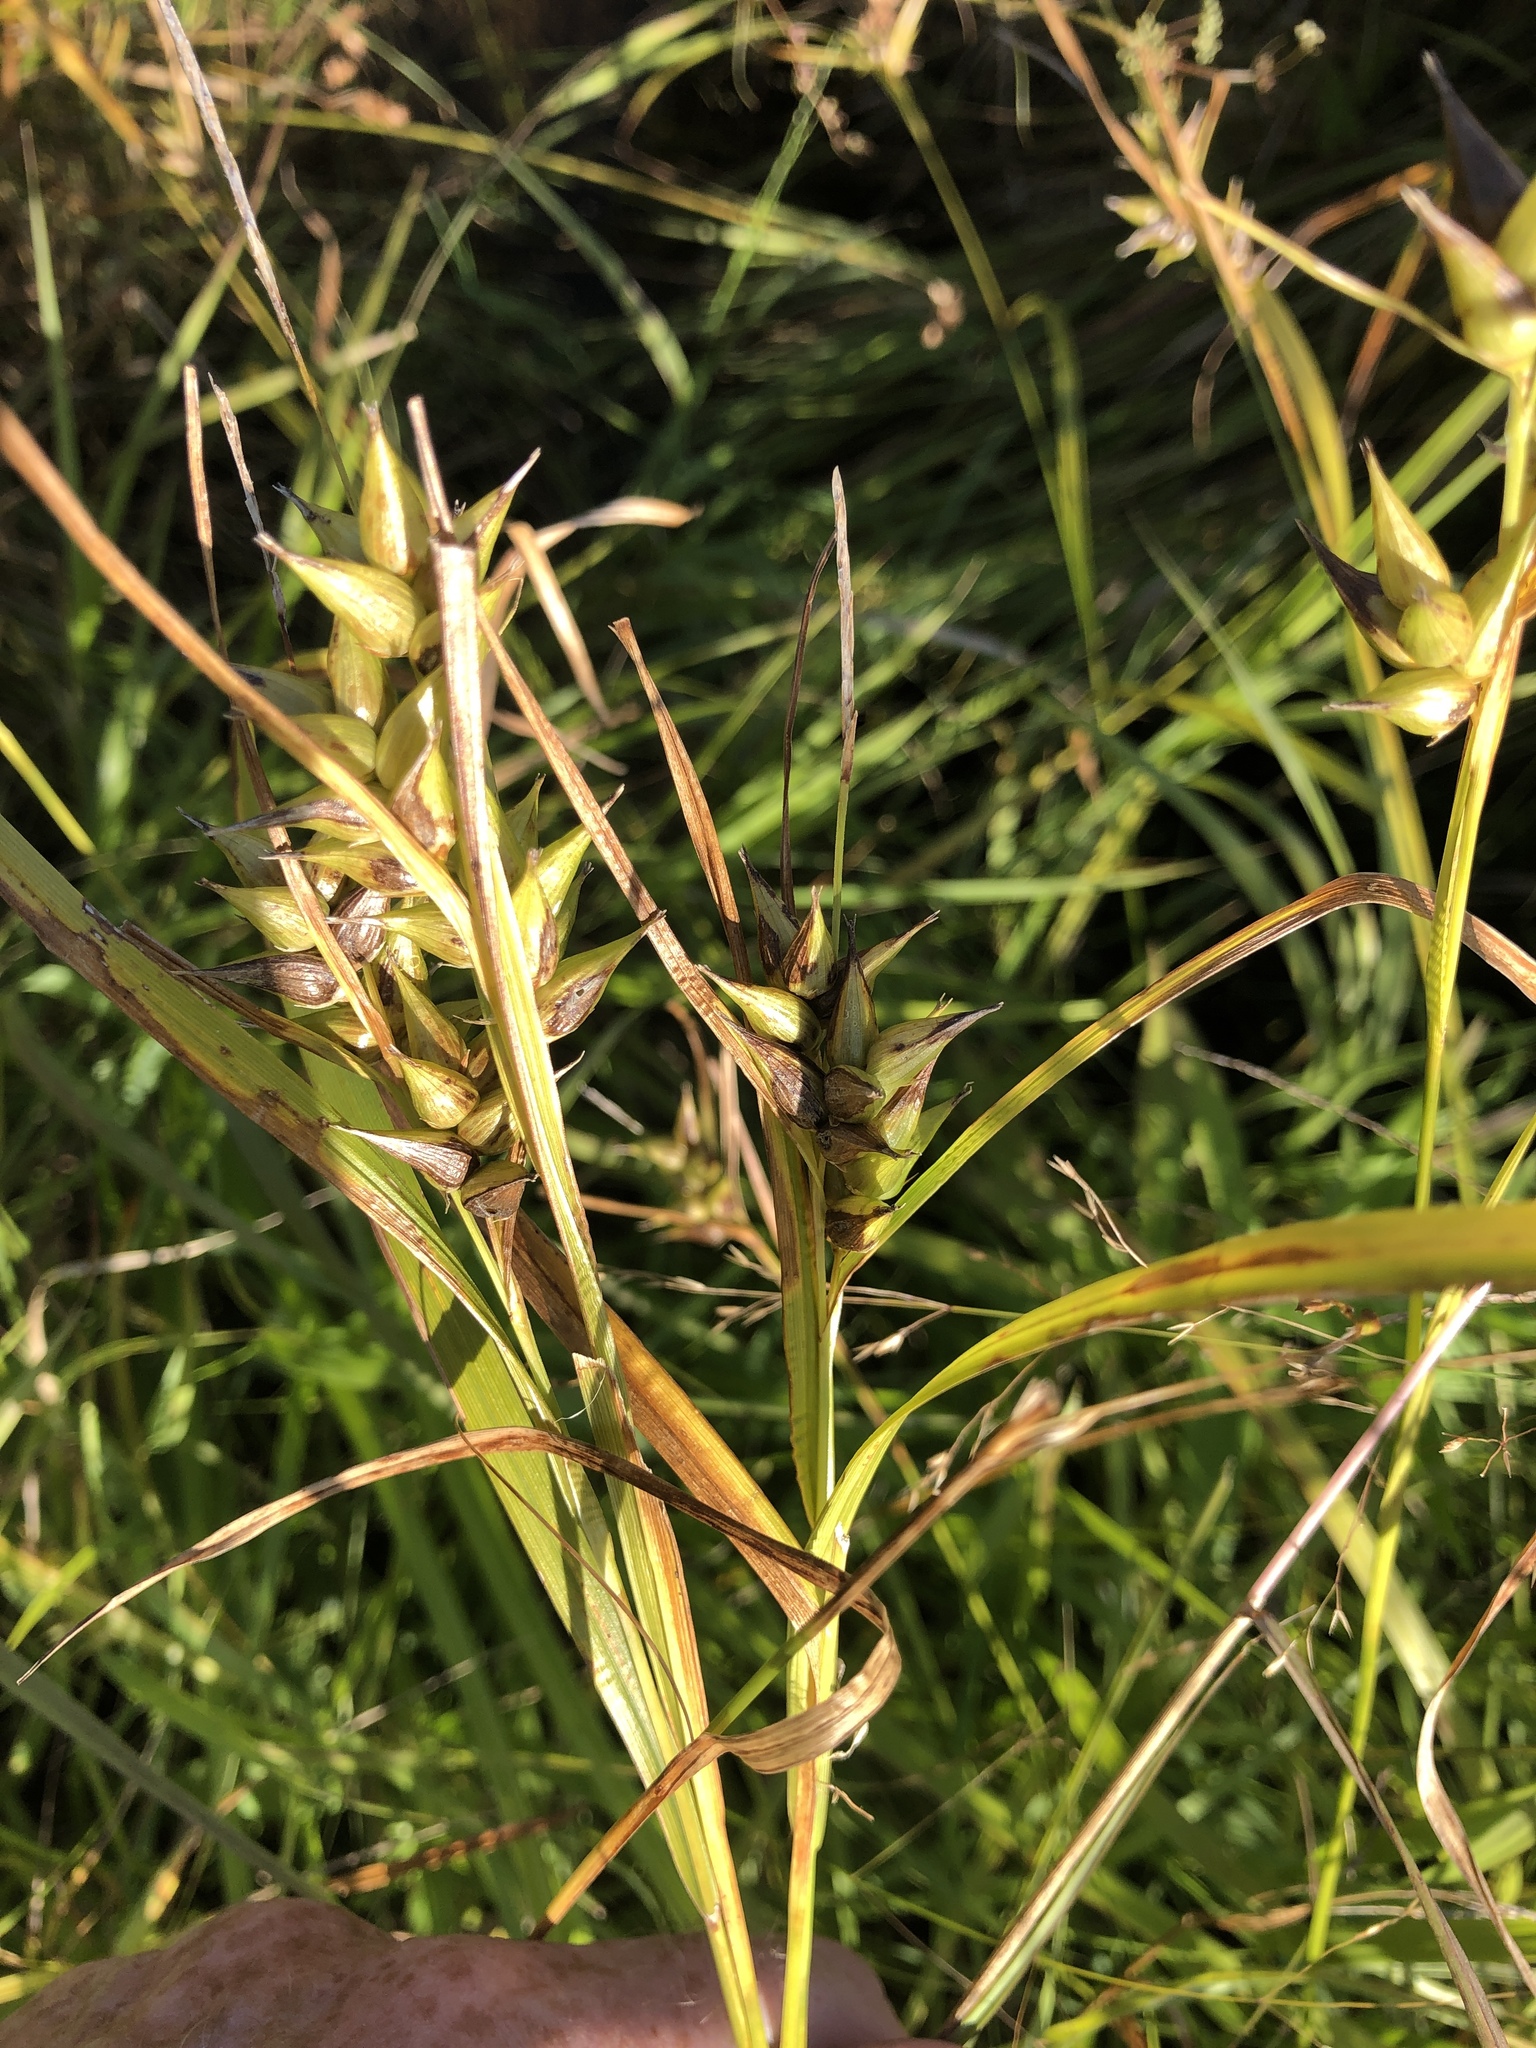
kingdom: Plantae
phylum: Tracheophyta
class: Liliopsida
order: Poales
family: Cyperaceae
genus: Carex
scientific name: Carex intumescens
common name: Greater bladder sedge
